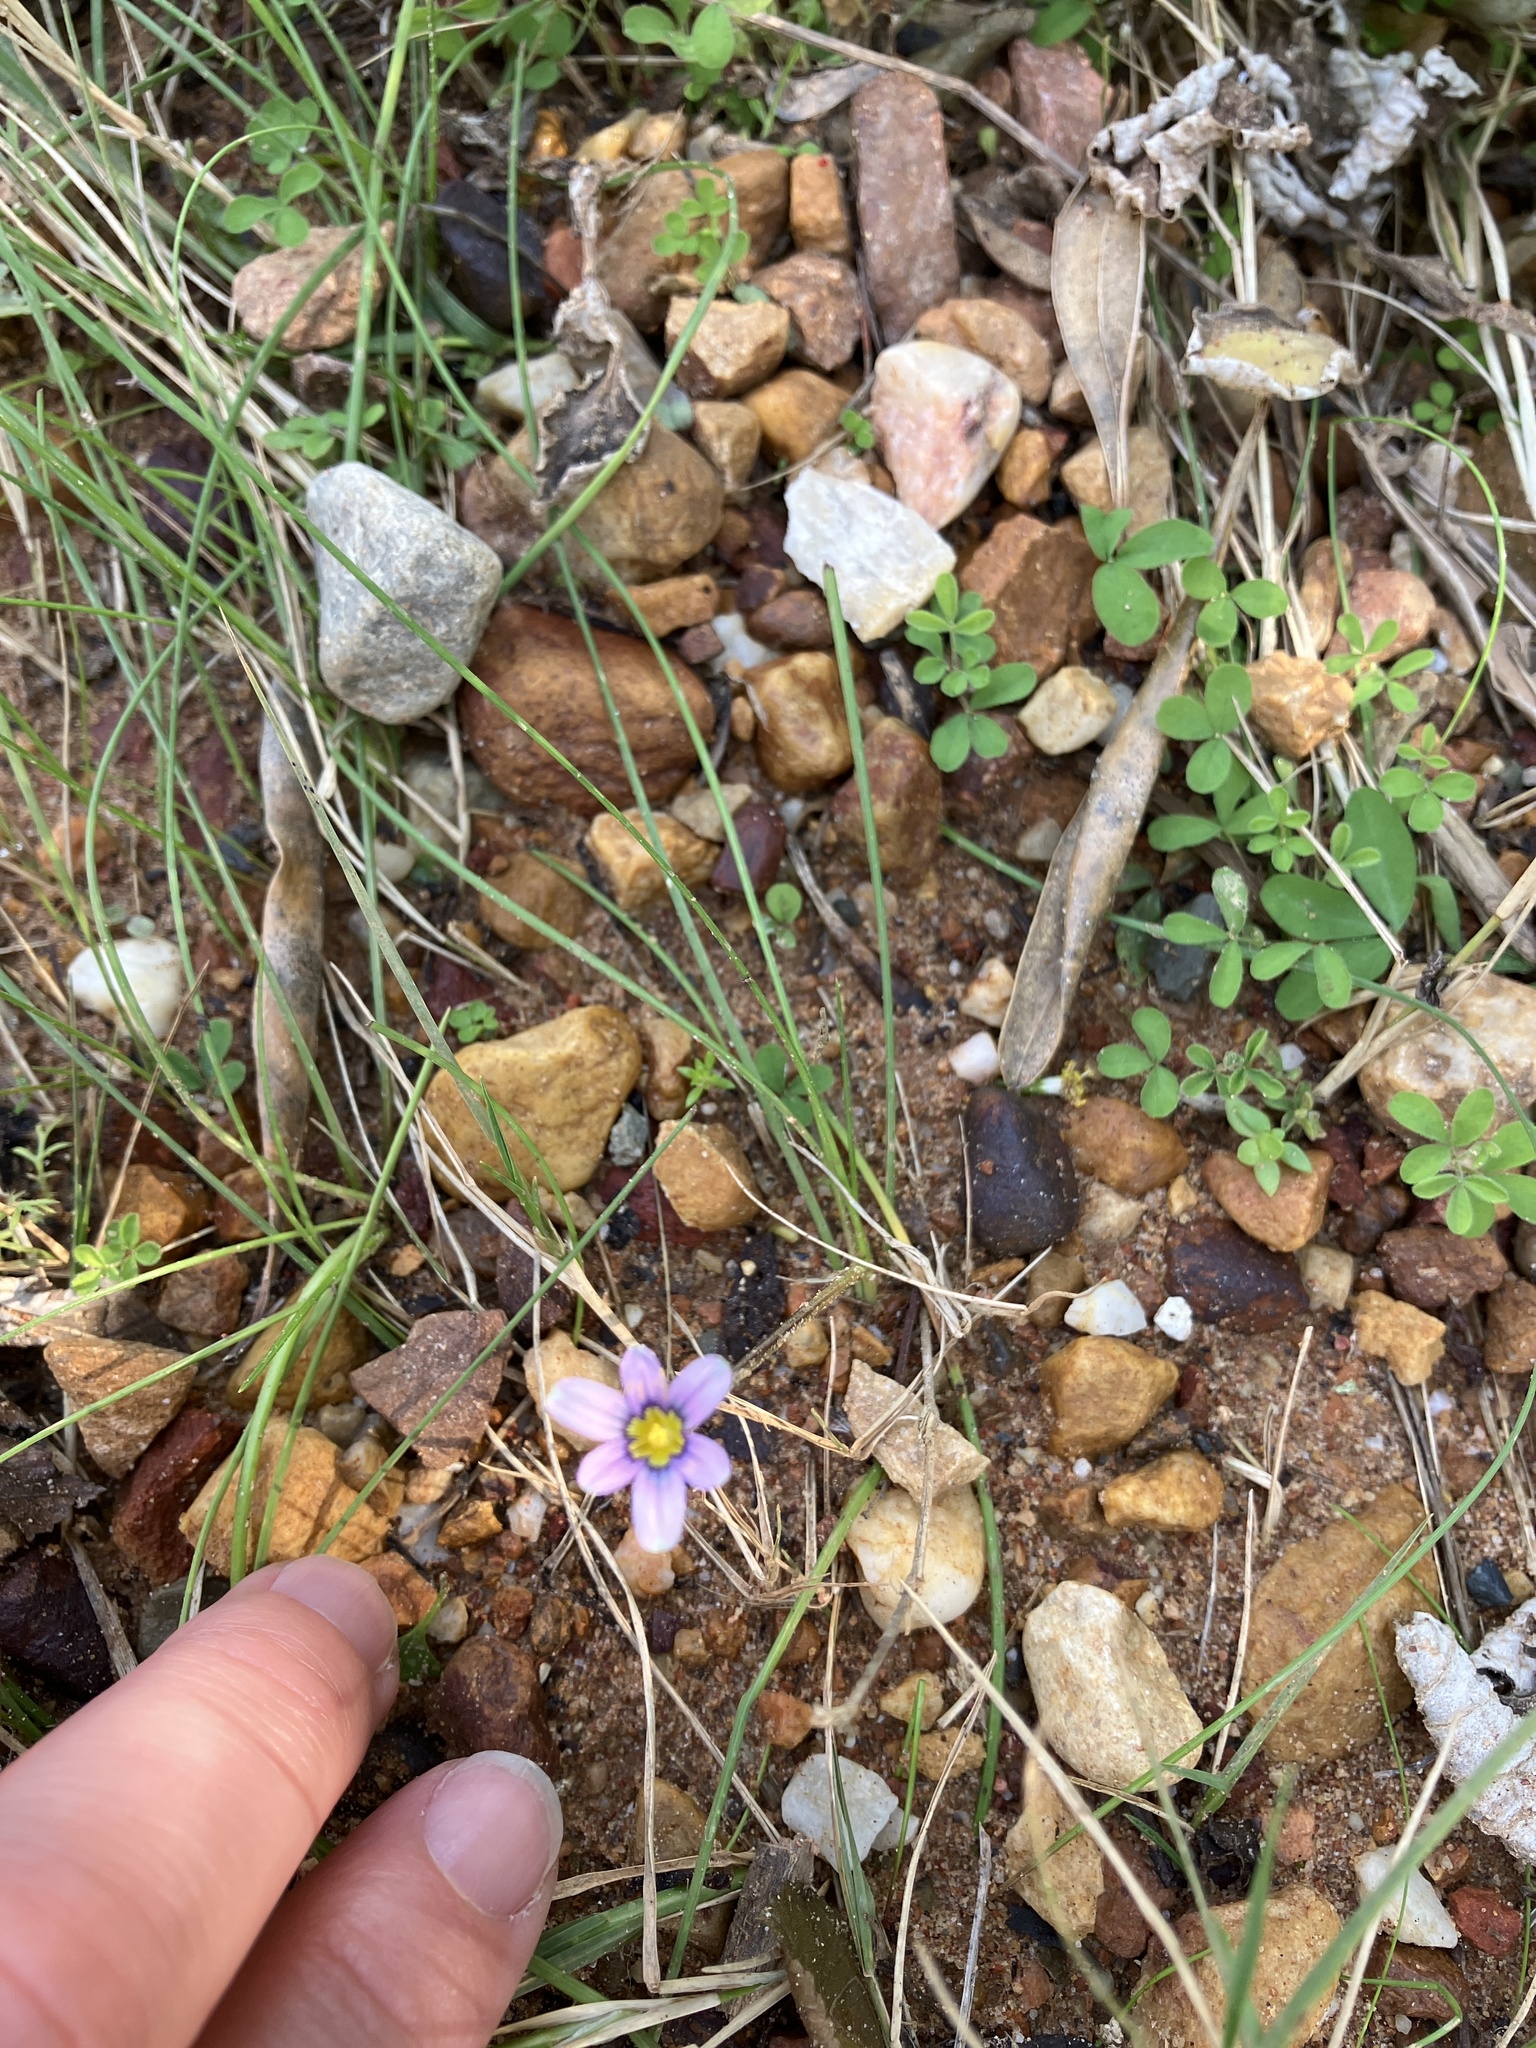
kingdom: Plantae
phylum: Tracheophyta
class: Liliopsida
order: Asparagales
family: Iridaceae
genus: Romulea
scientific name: Romulea minutiflora
